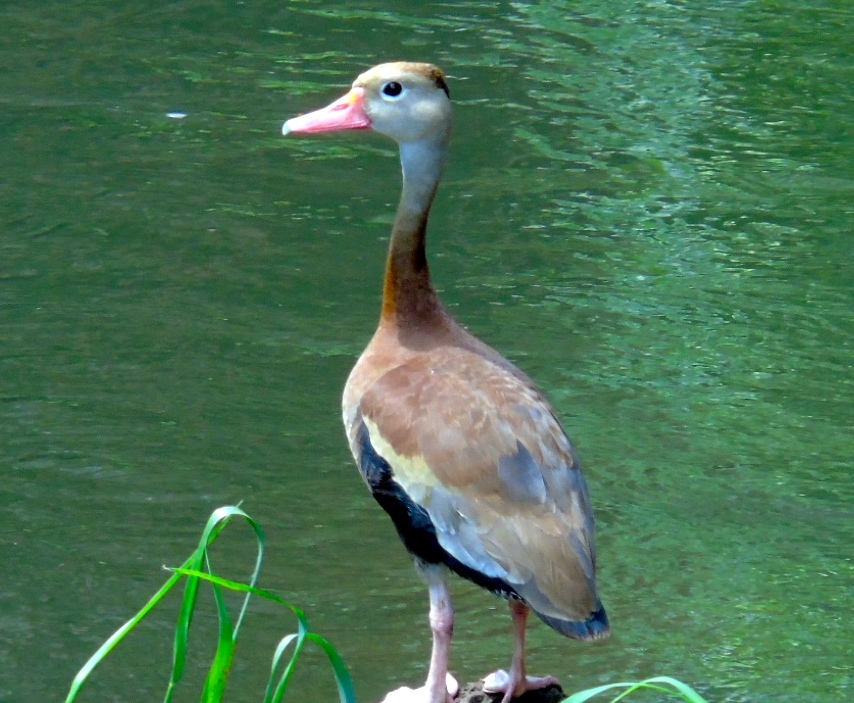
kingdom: Animalia
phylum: Chordata
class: Aves
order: Anseriformes
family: Anatidae
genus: Dendrocygna
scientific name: Dendrocygna autumnalis
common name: Black-bellied whistling duck
